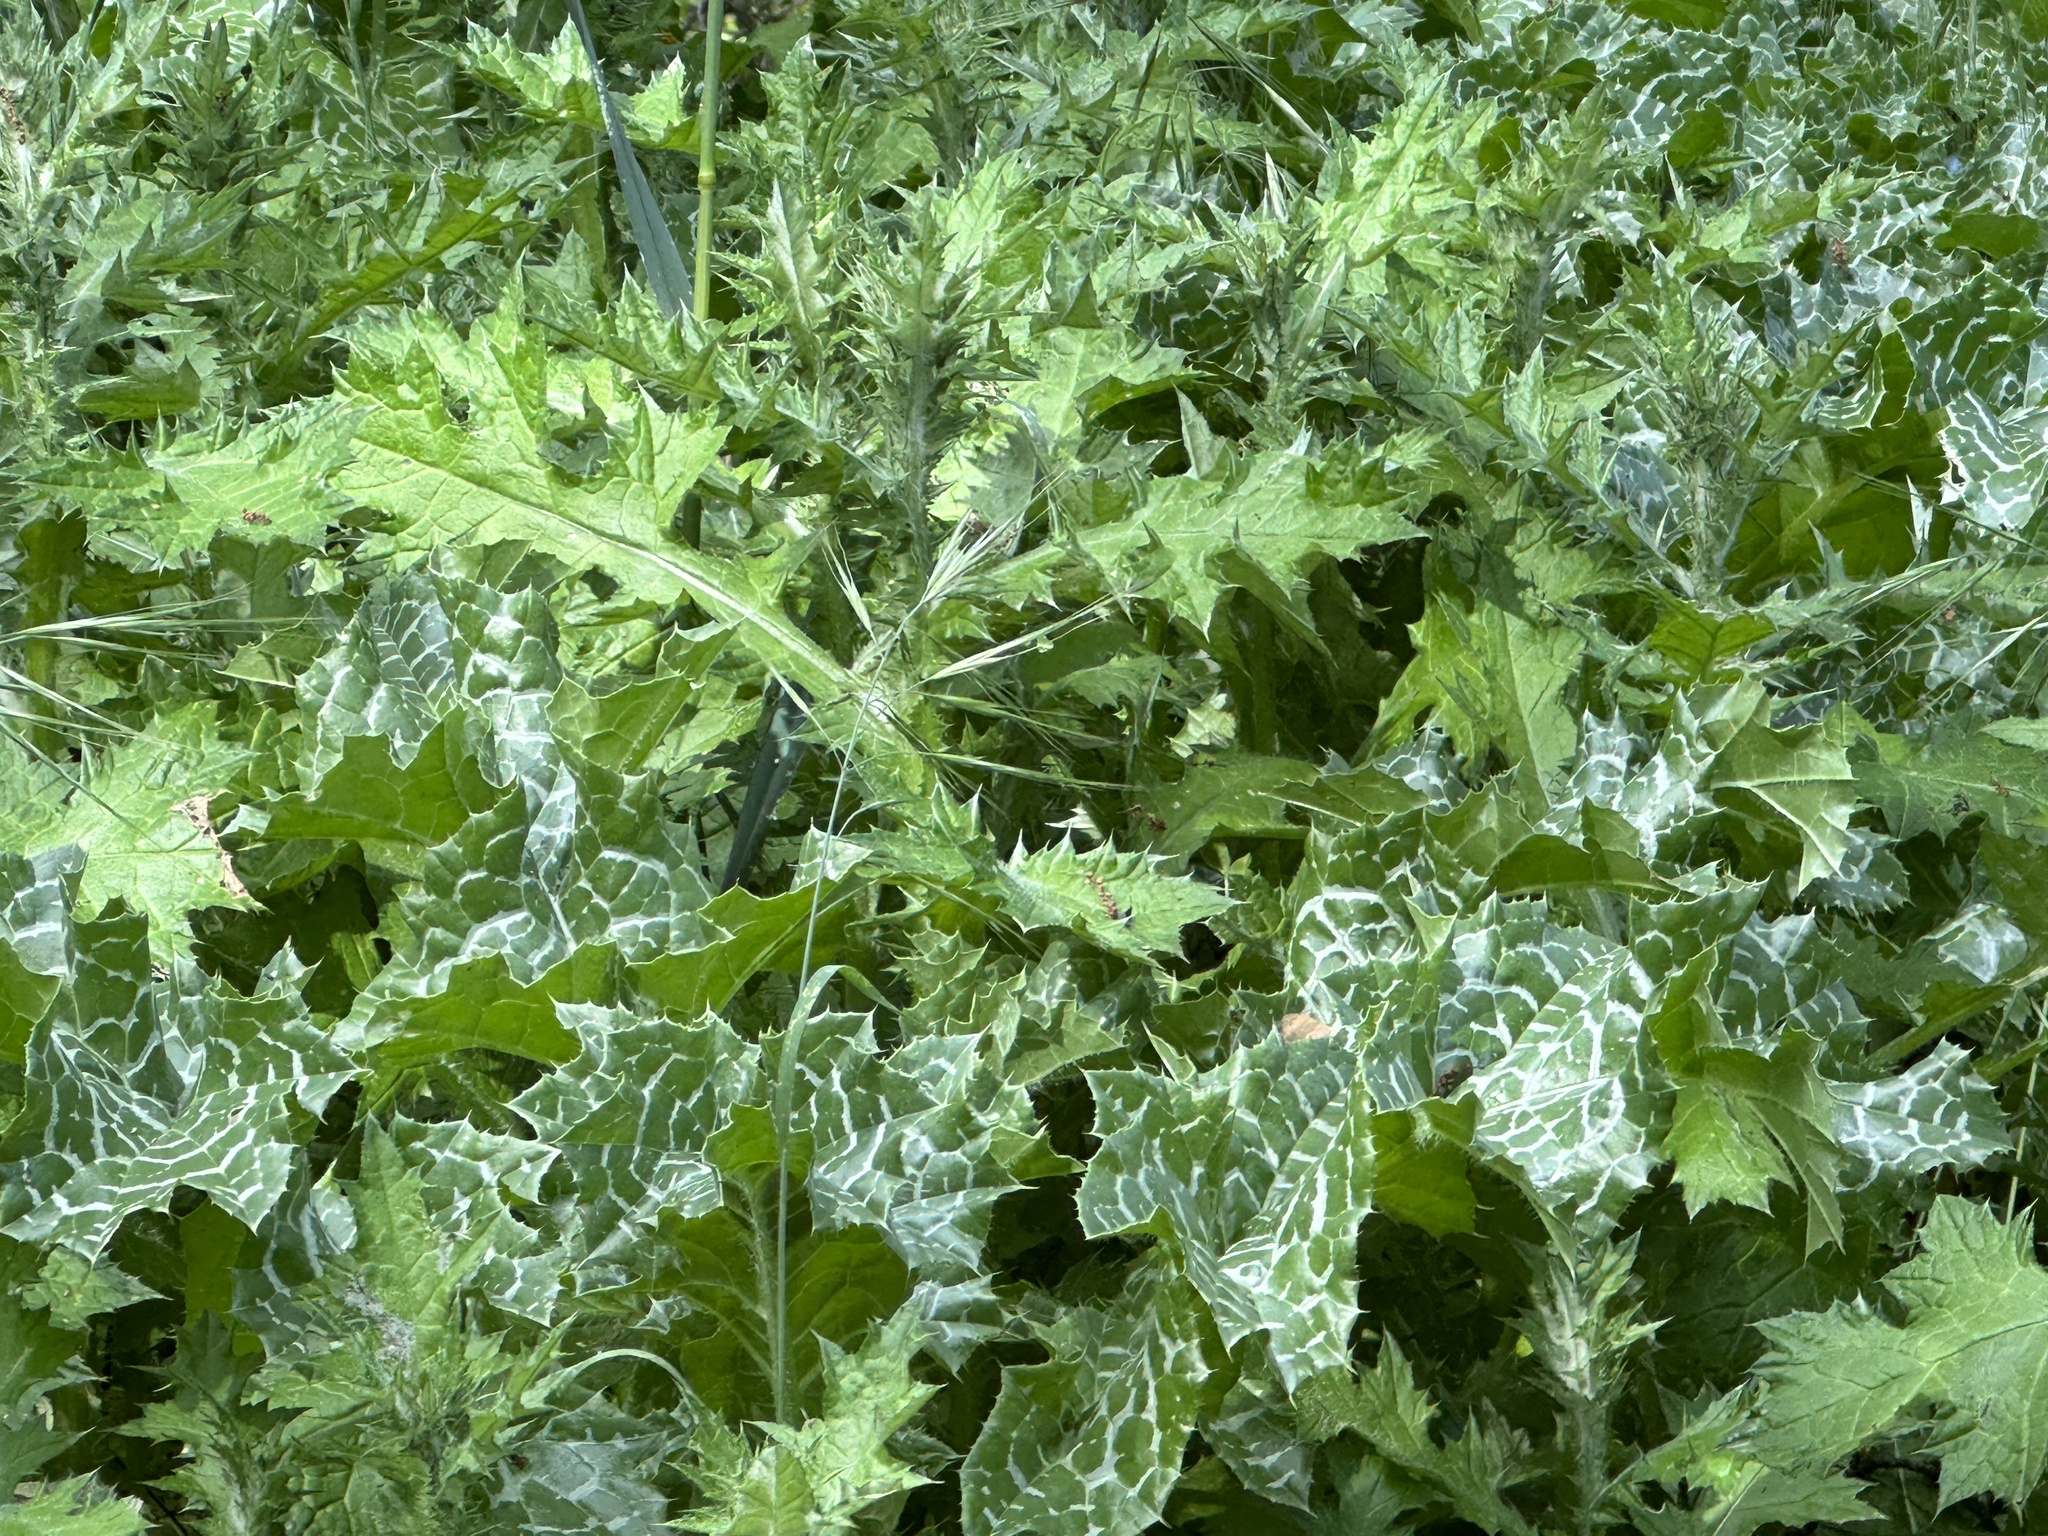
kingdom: Plantae
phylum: Tracheophyta
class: Magnoliopsida
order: Asterales
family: Asteraceae
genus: Silybum
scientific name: Silybum marianum
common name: Milk thistle
